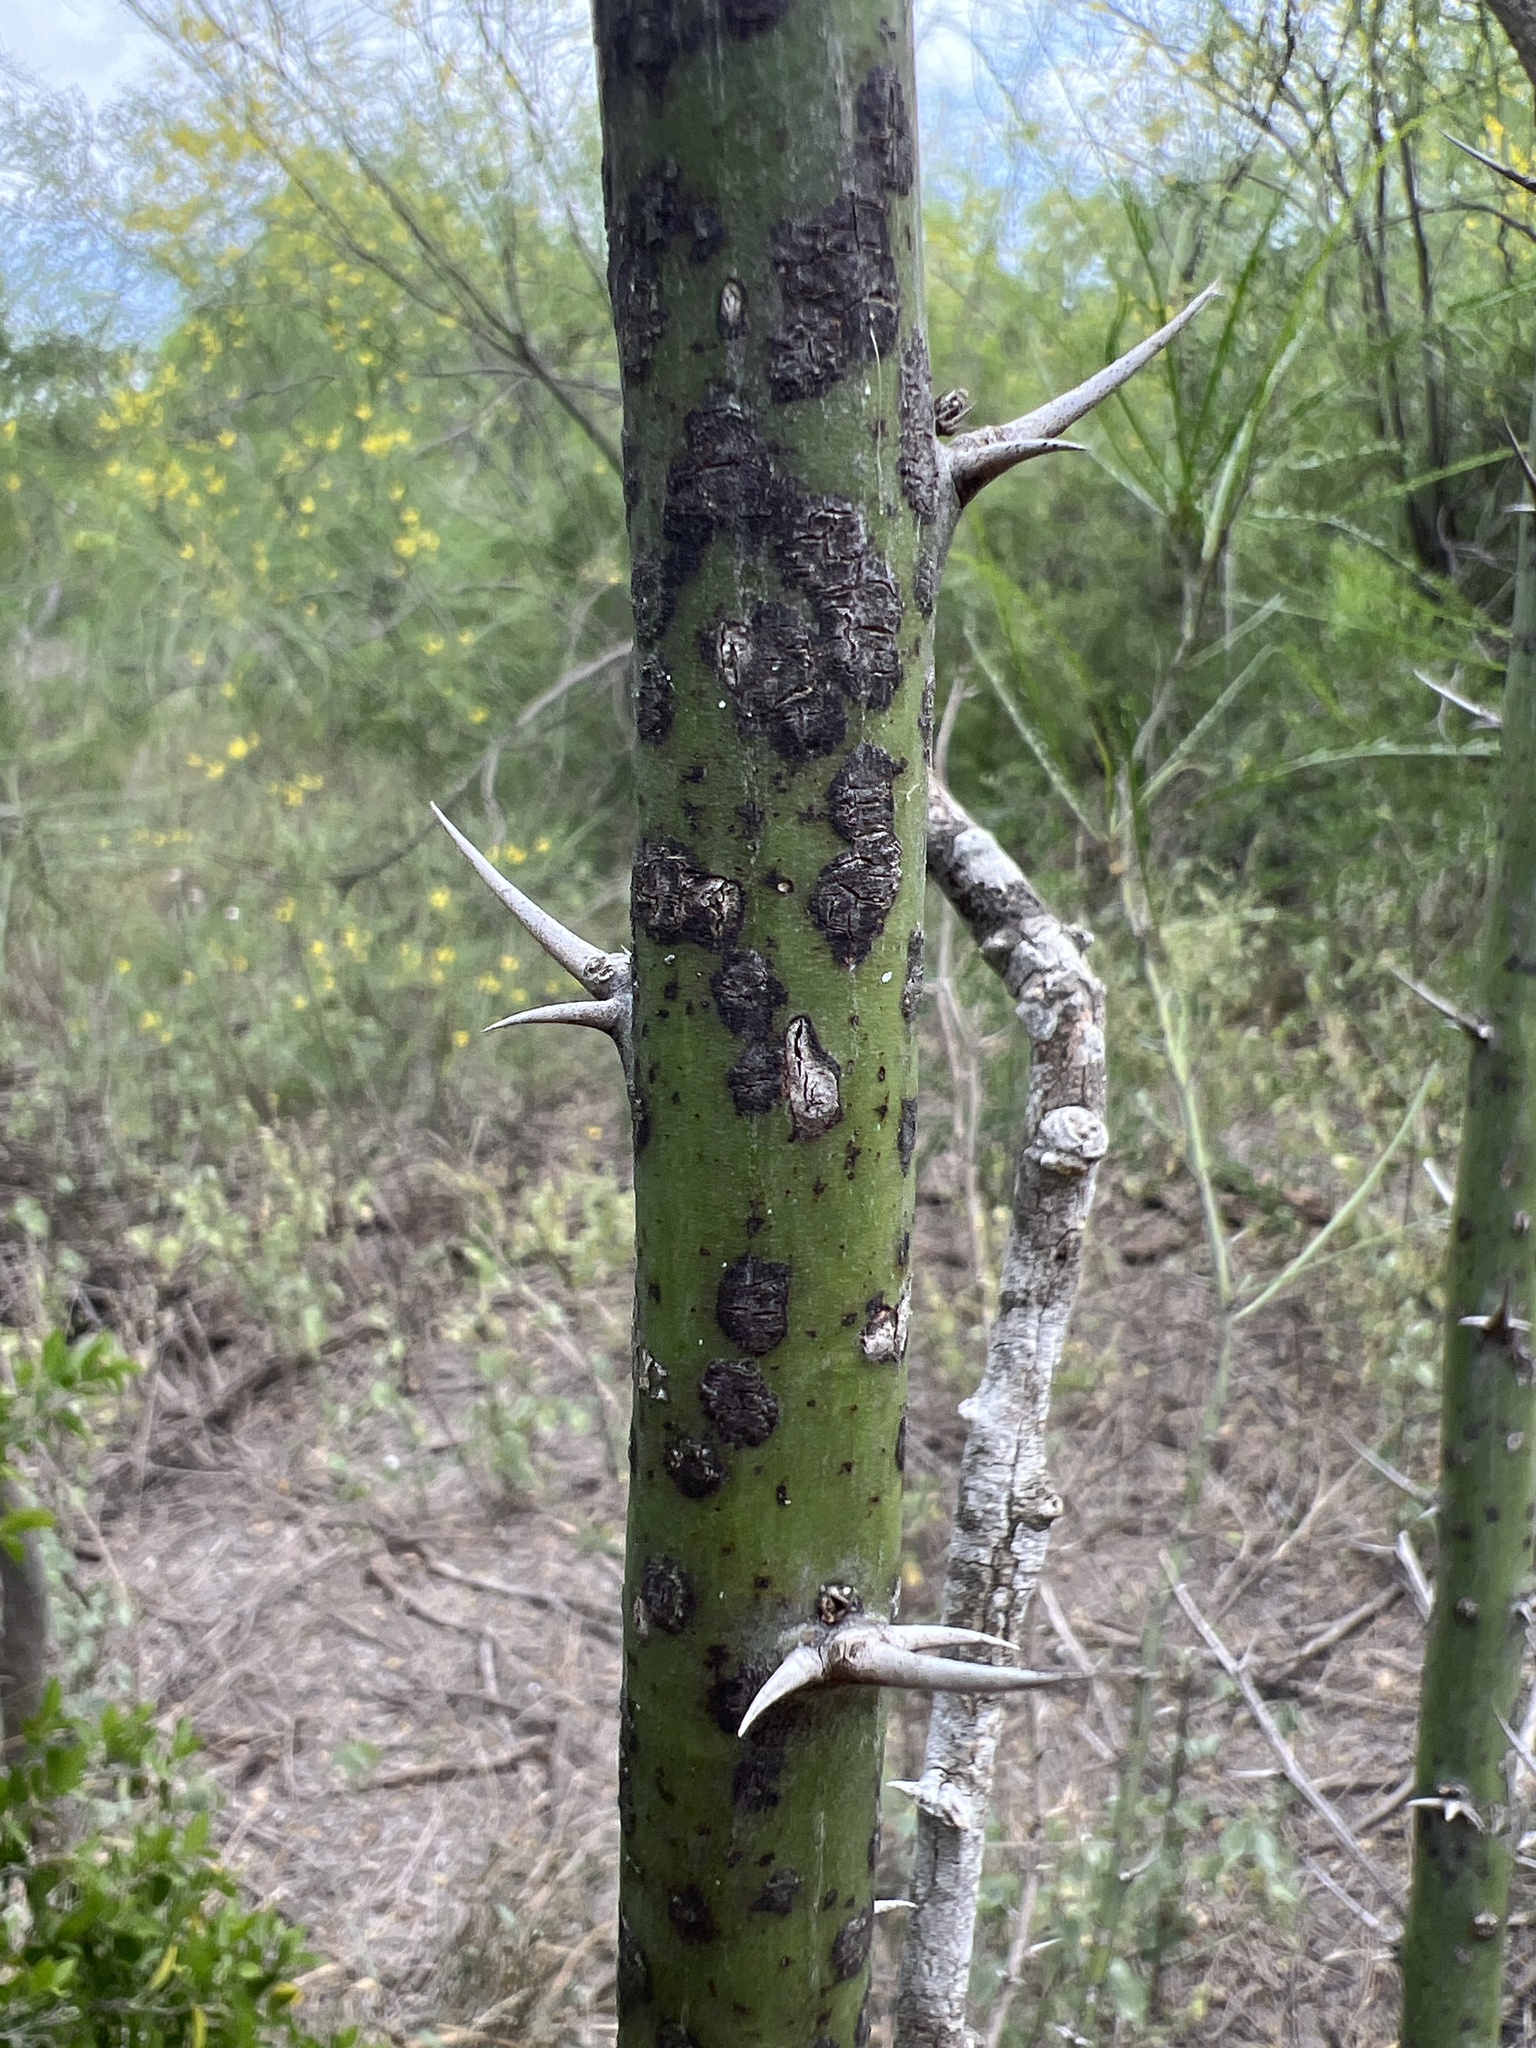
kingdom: Plantae
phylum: Tracheophyta
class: Magnoliopsida
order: Fabales
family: Fabaceae
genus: Parkinsonia
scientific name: Parkinsonia aculeata
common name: Jerusalem thorn
